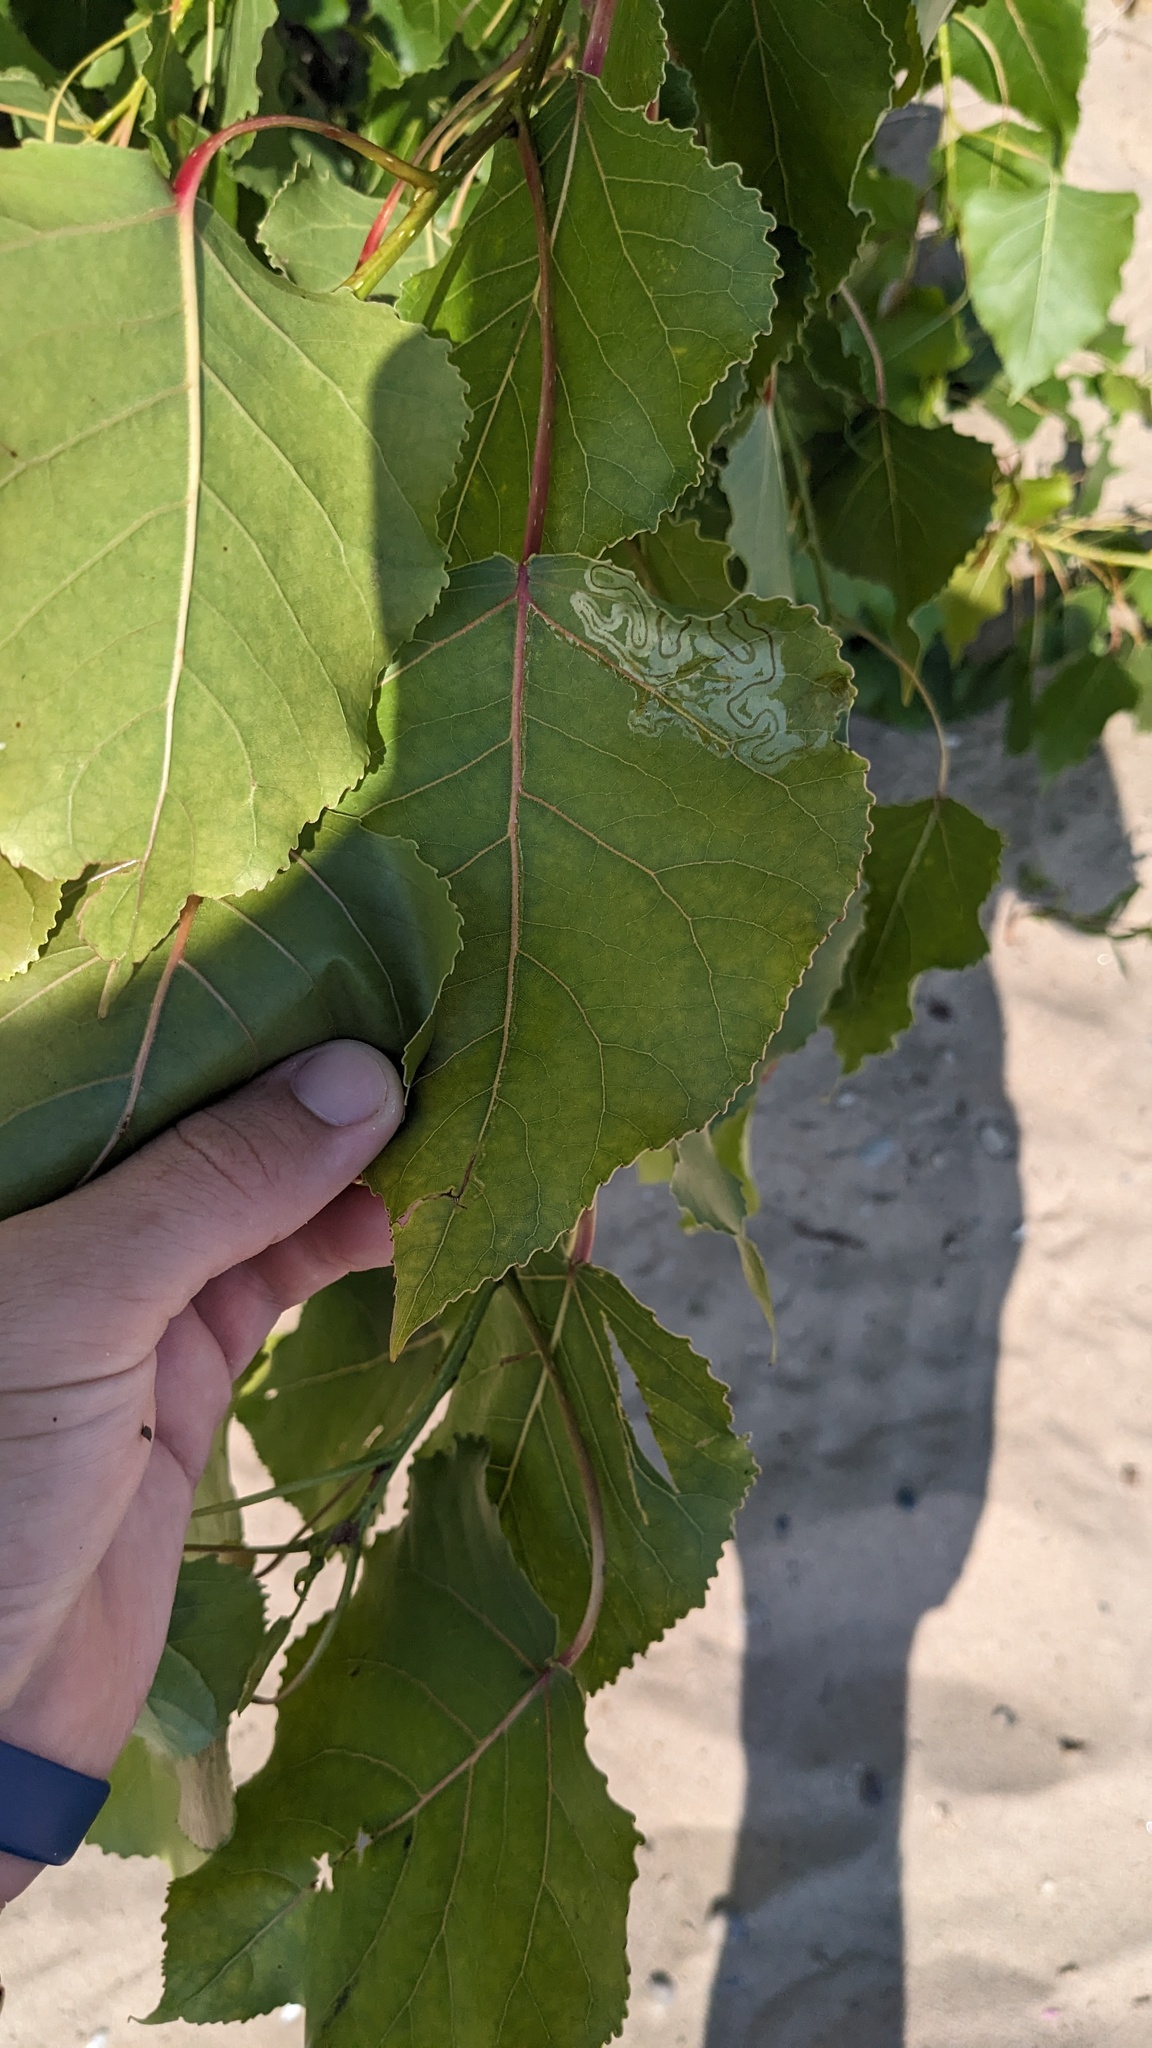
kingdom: Animalia
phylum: Arthropoda
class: Insecta
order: Lepidoptera
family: Gracillariidae
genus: Phyllocnistis
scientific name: Phyllocnistis populiella
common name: Aspen serpentine leafminer moth
